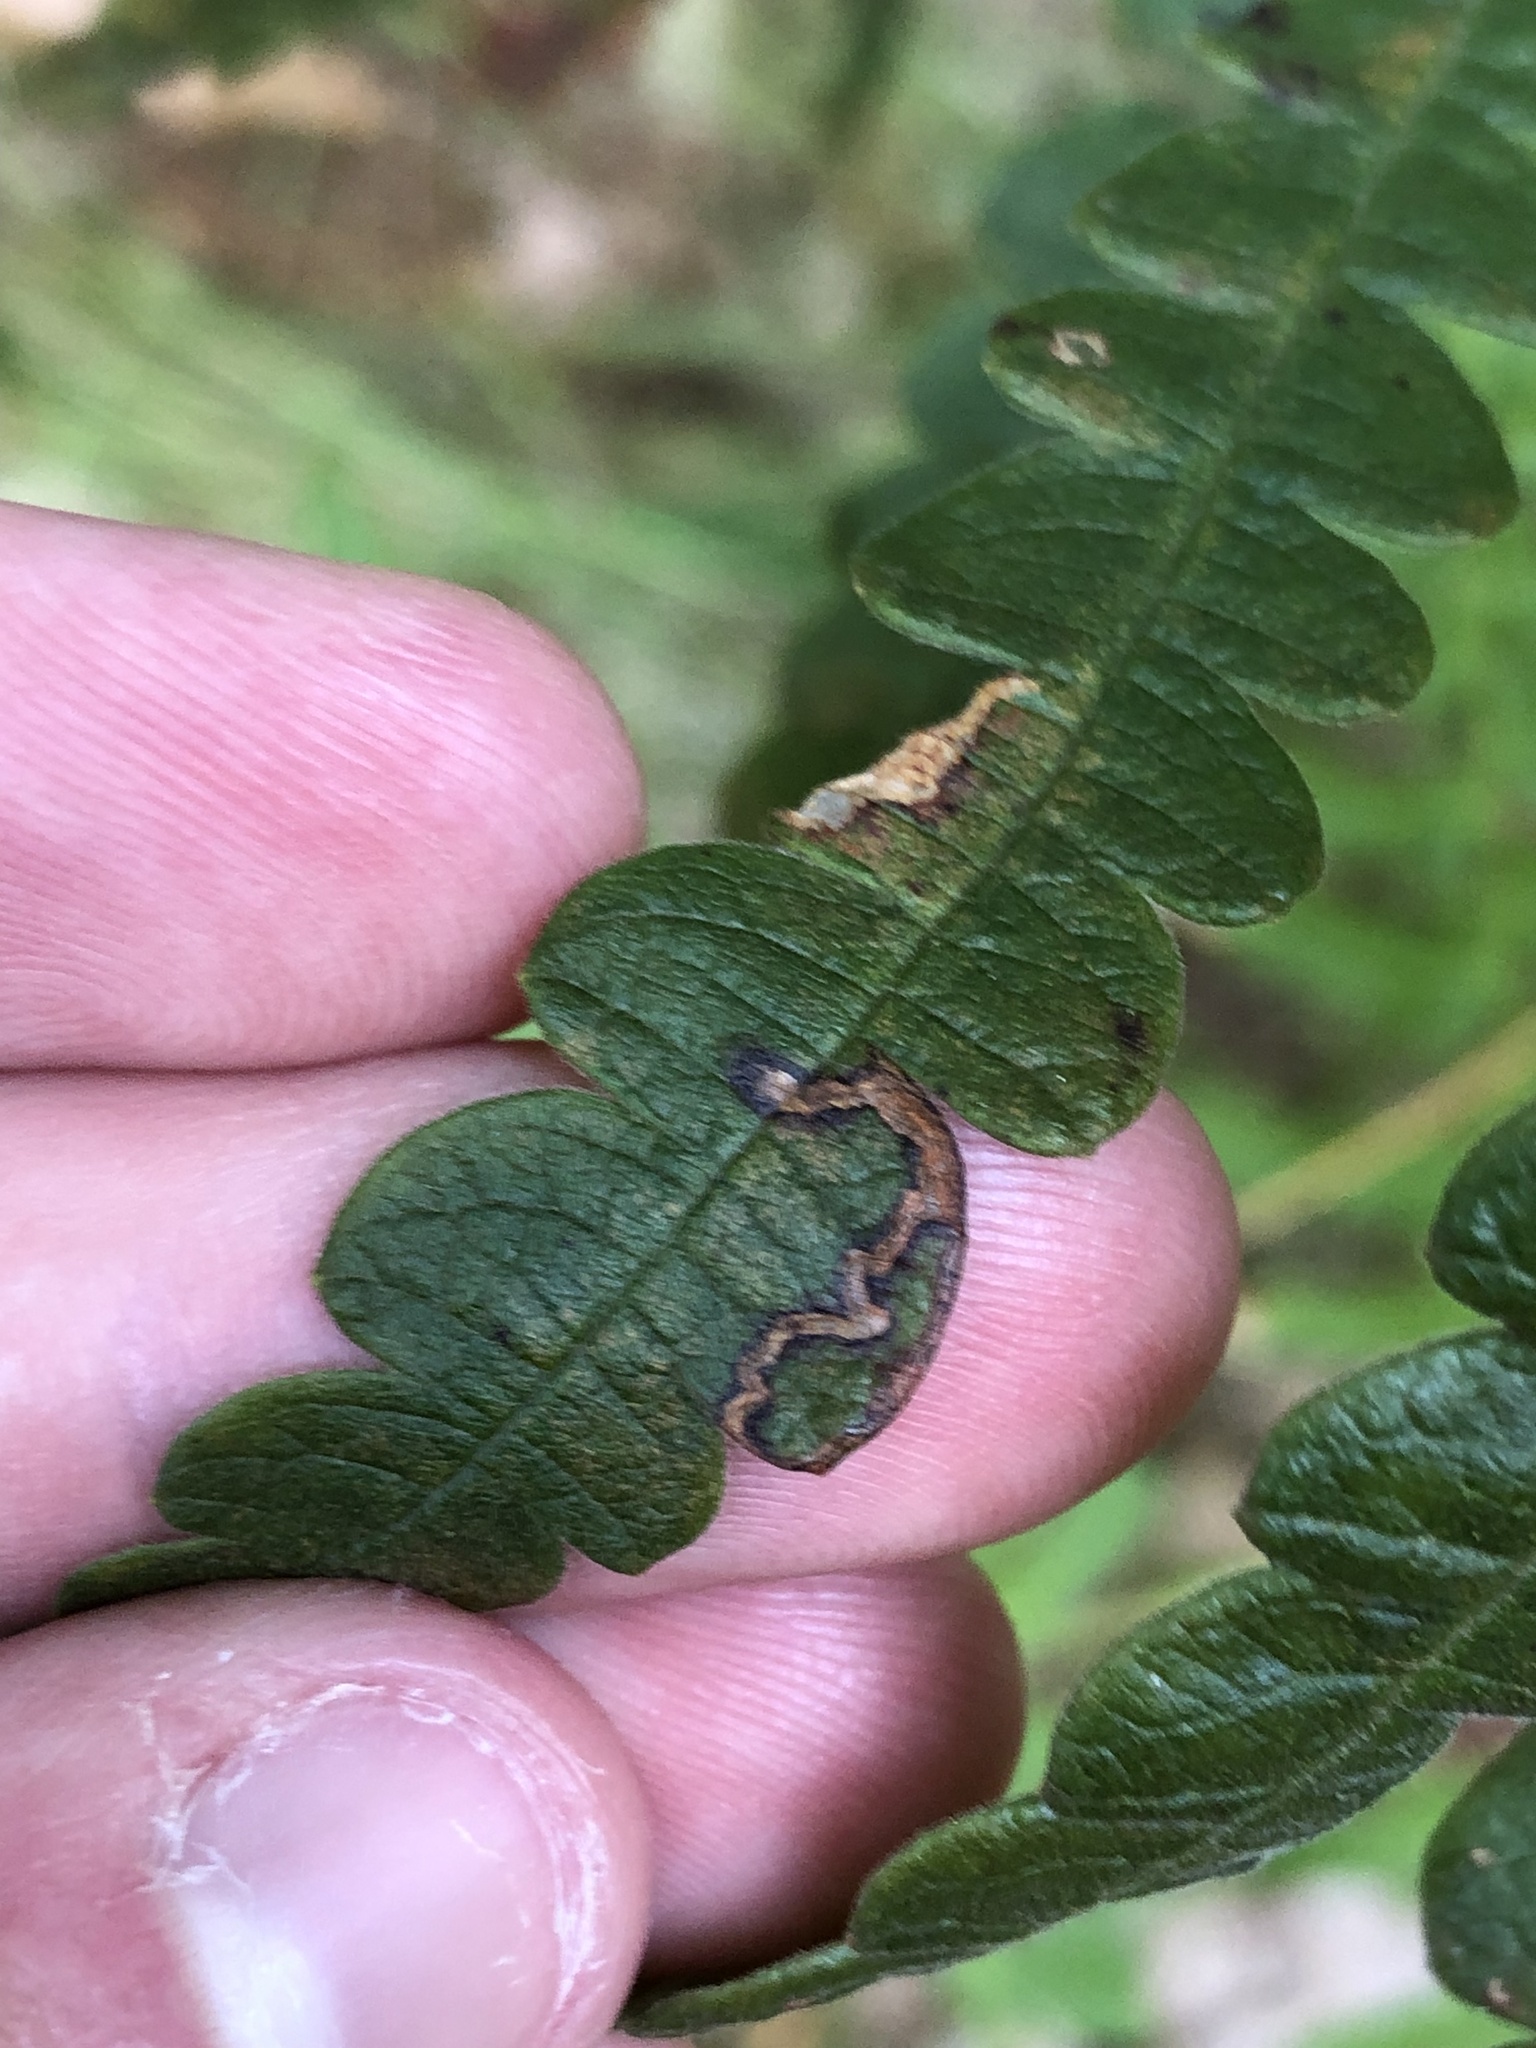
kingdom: Animalia
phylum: Arthropoda
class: Insecta
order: Lepidoptera
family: Nepticulidae
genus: Stigmella
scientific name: Stigmella corylifoliella
